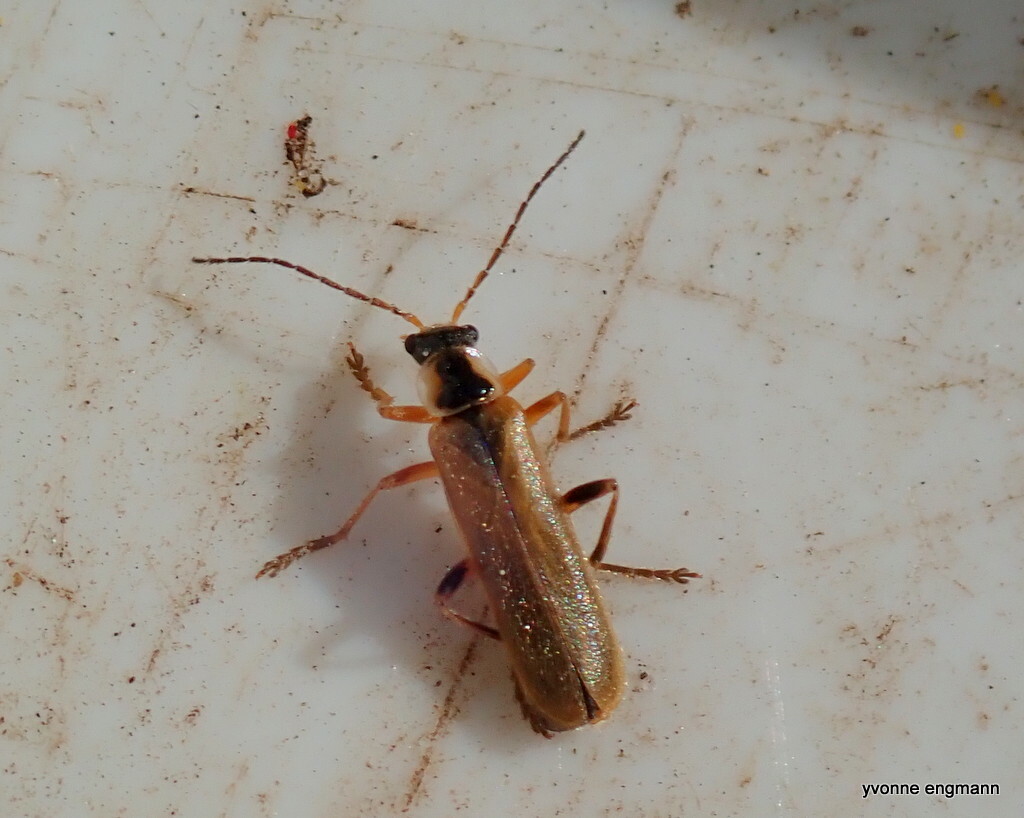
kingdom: Animalia
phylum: Arthropoda
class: Insecta
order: Coleoptera
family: Cantharidae
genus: Cantharis
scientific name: Cantharis decipiens
